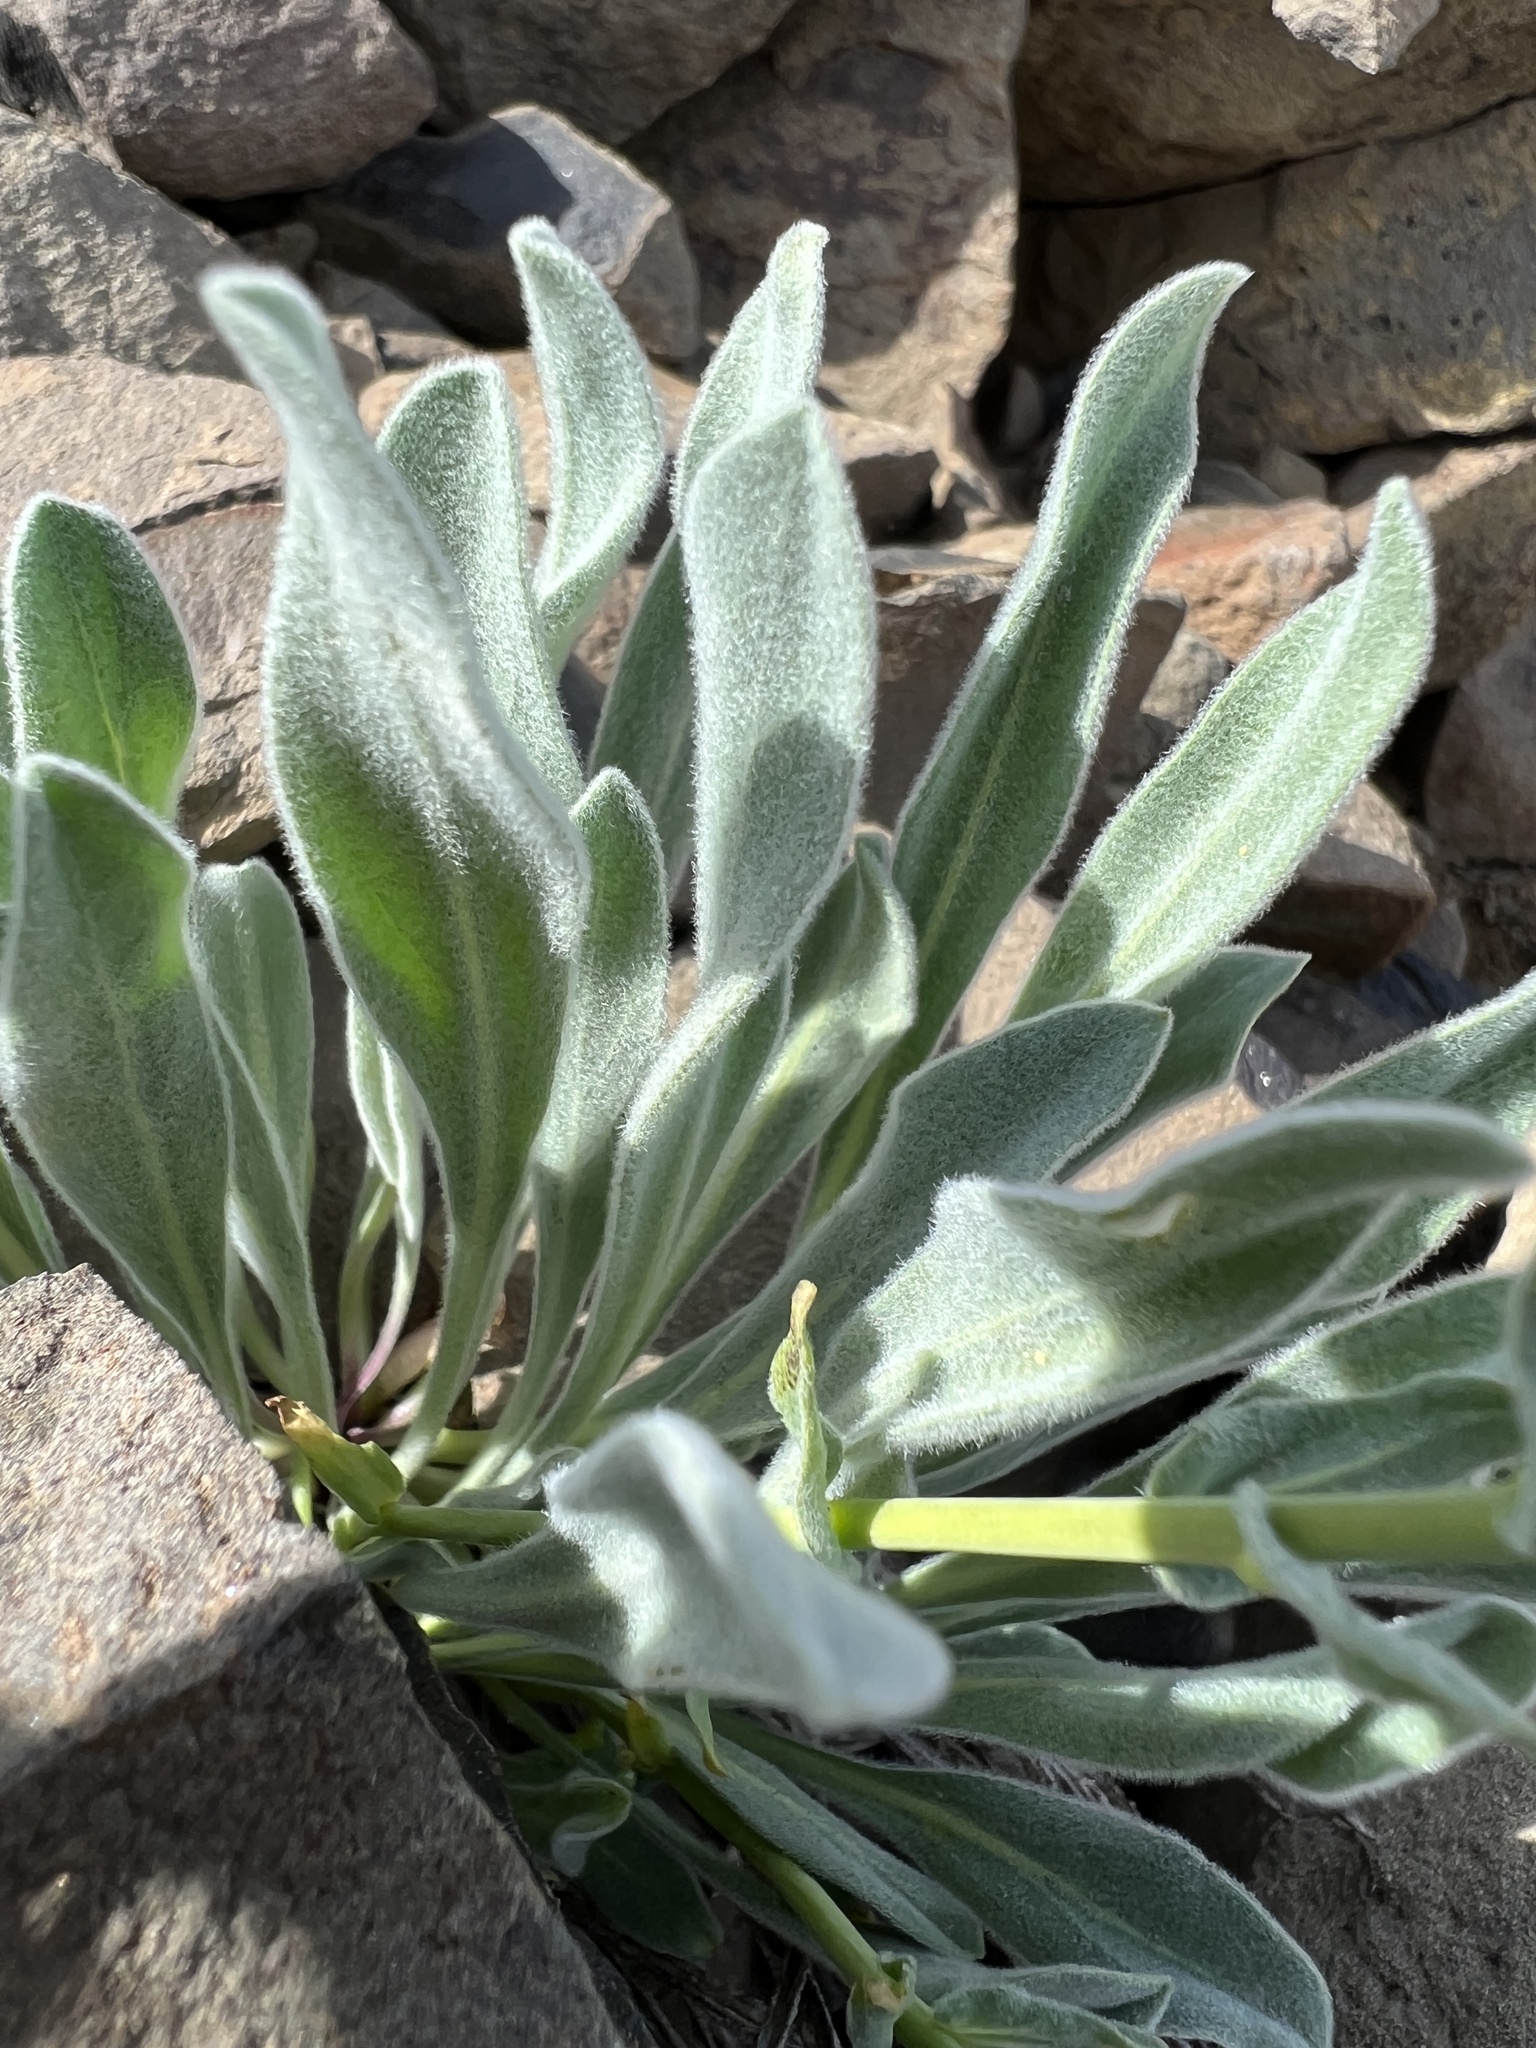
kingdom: Plantae
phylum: Tracheophyta
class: Magnoliopsida
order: Brassicales
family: Brassicaceae
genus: Phoenicaulis
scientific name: Phoenicaulis cheiranthoides
